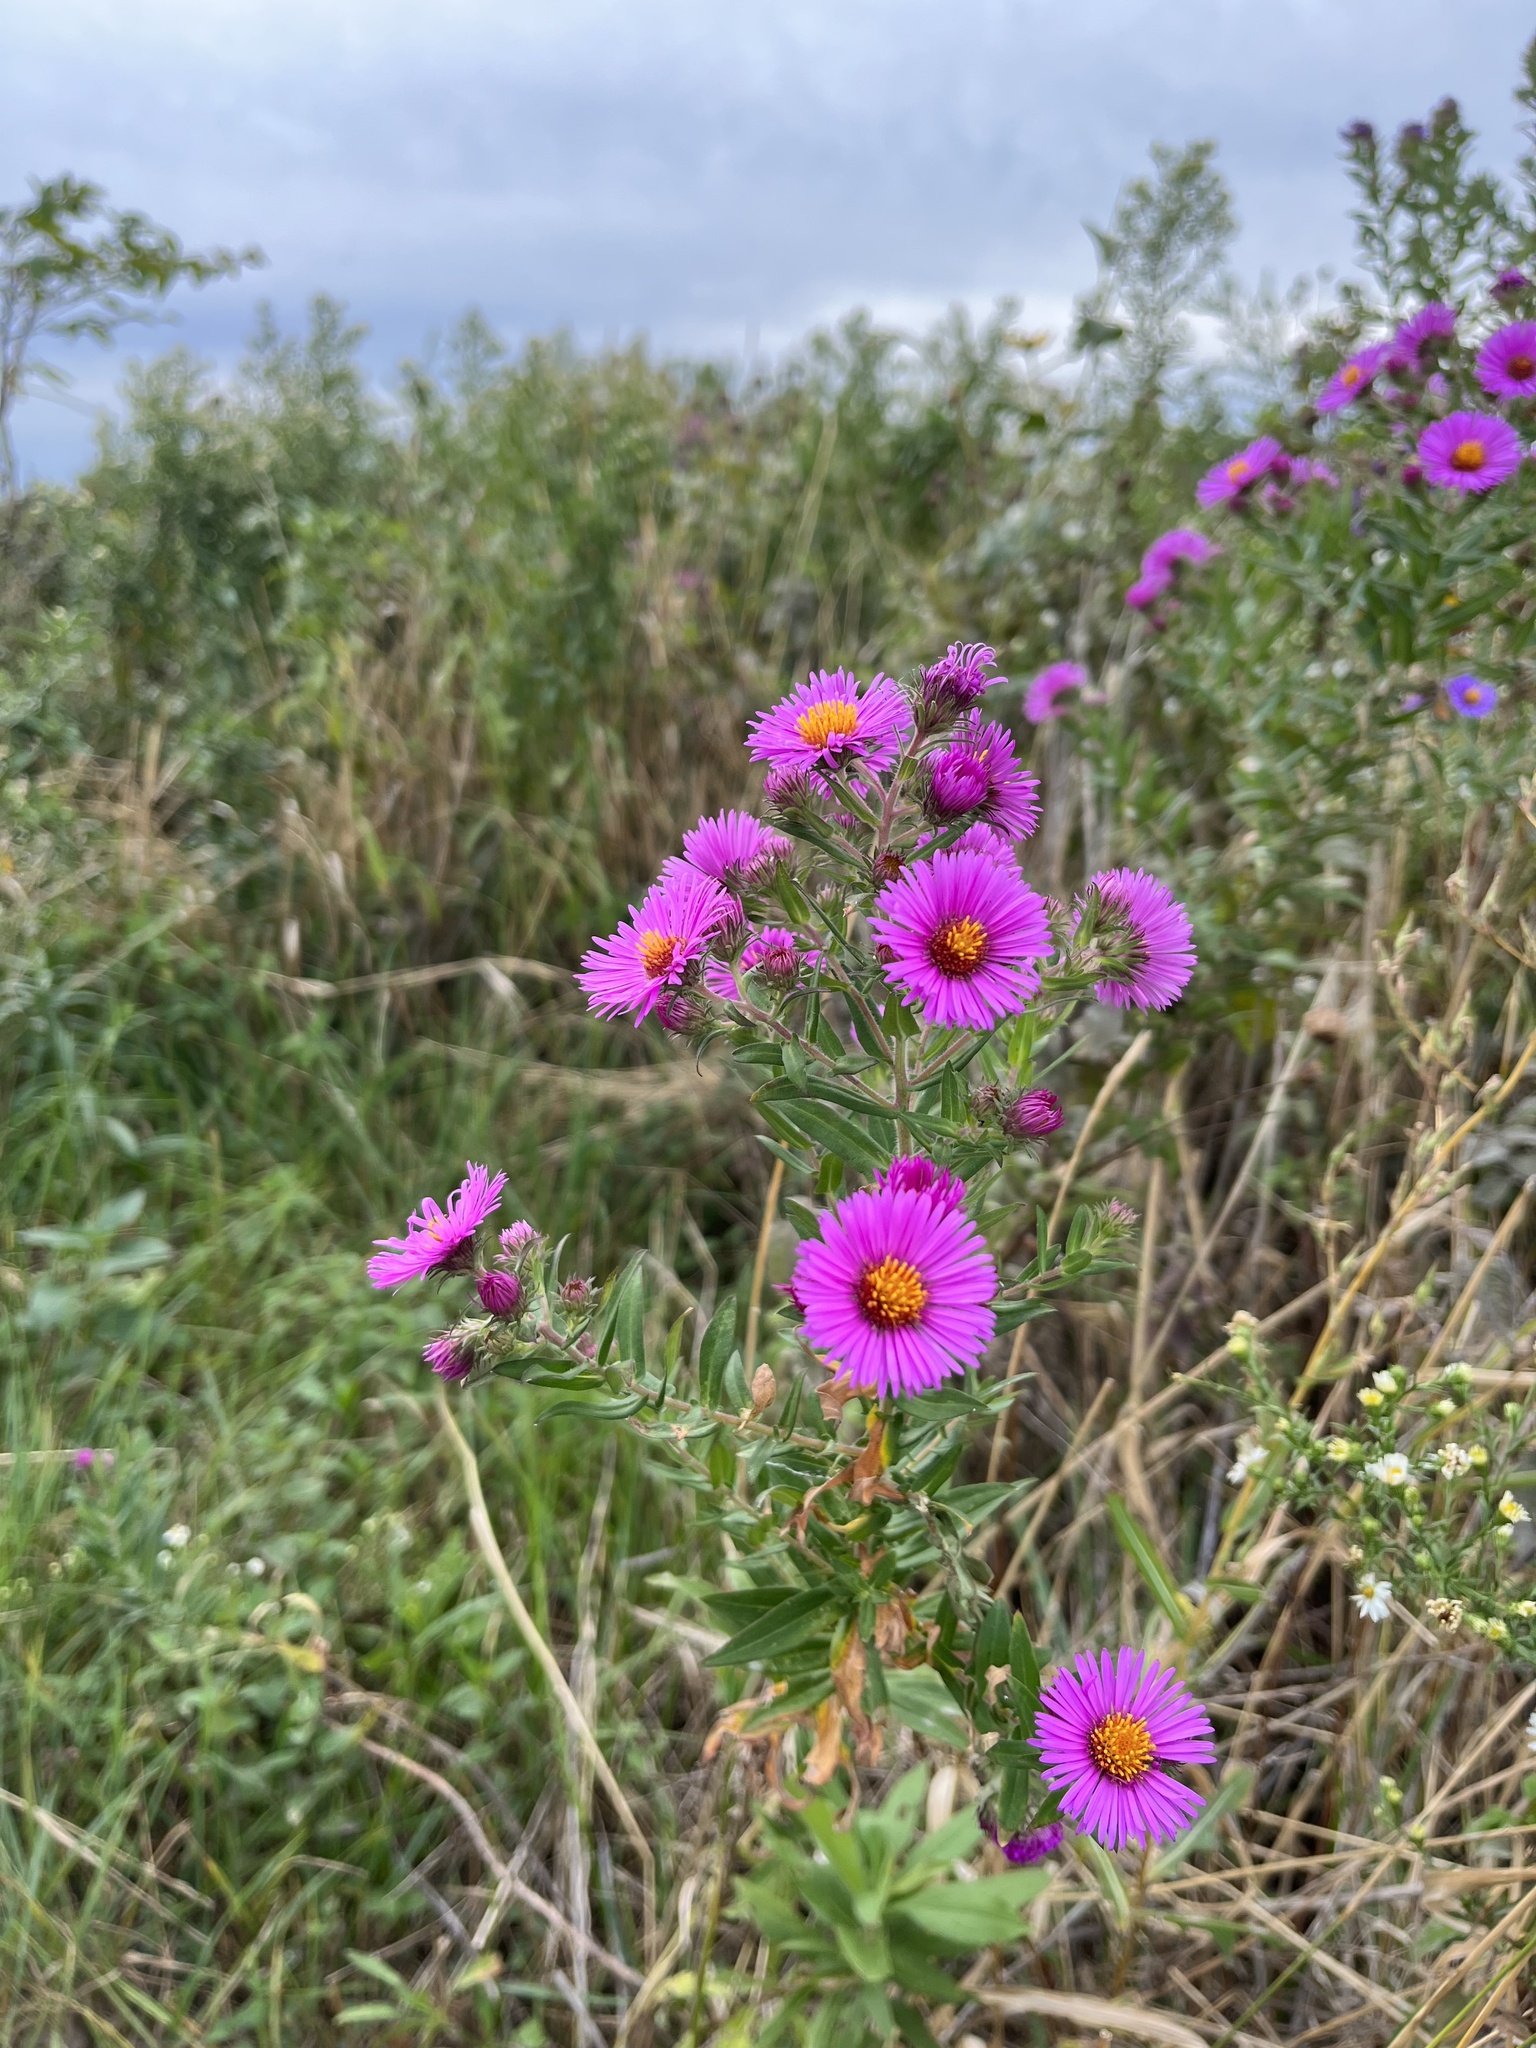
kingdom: Plantae
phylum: Tracheophyta
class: Magnoliopsida
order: Asterales
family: Asteraceae
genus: Symphyotrichum
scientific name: Symphyotrichum novae-angliae
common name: Michaelmas daisy
